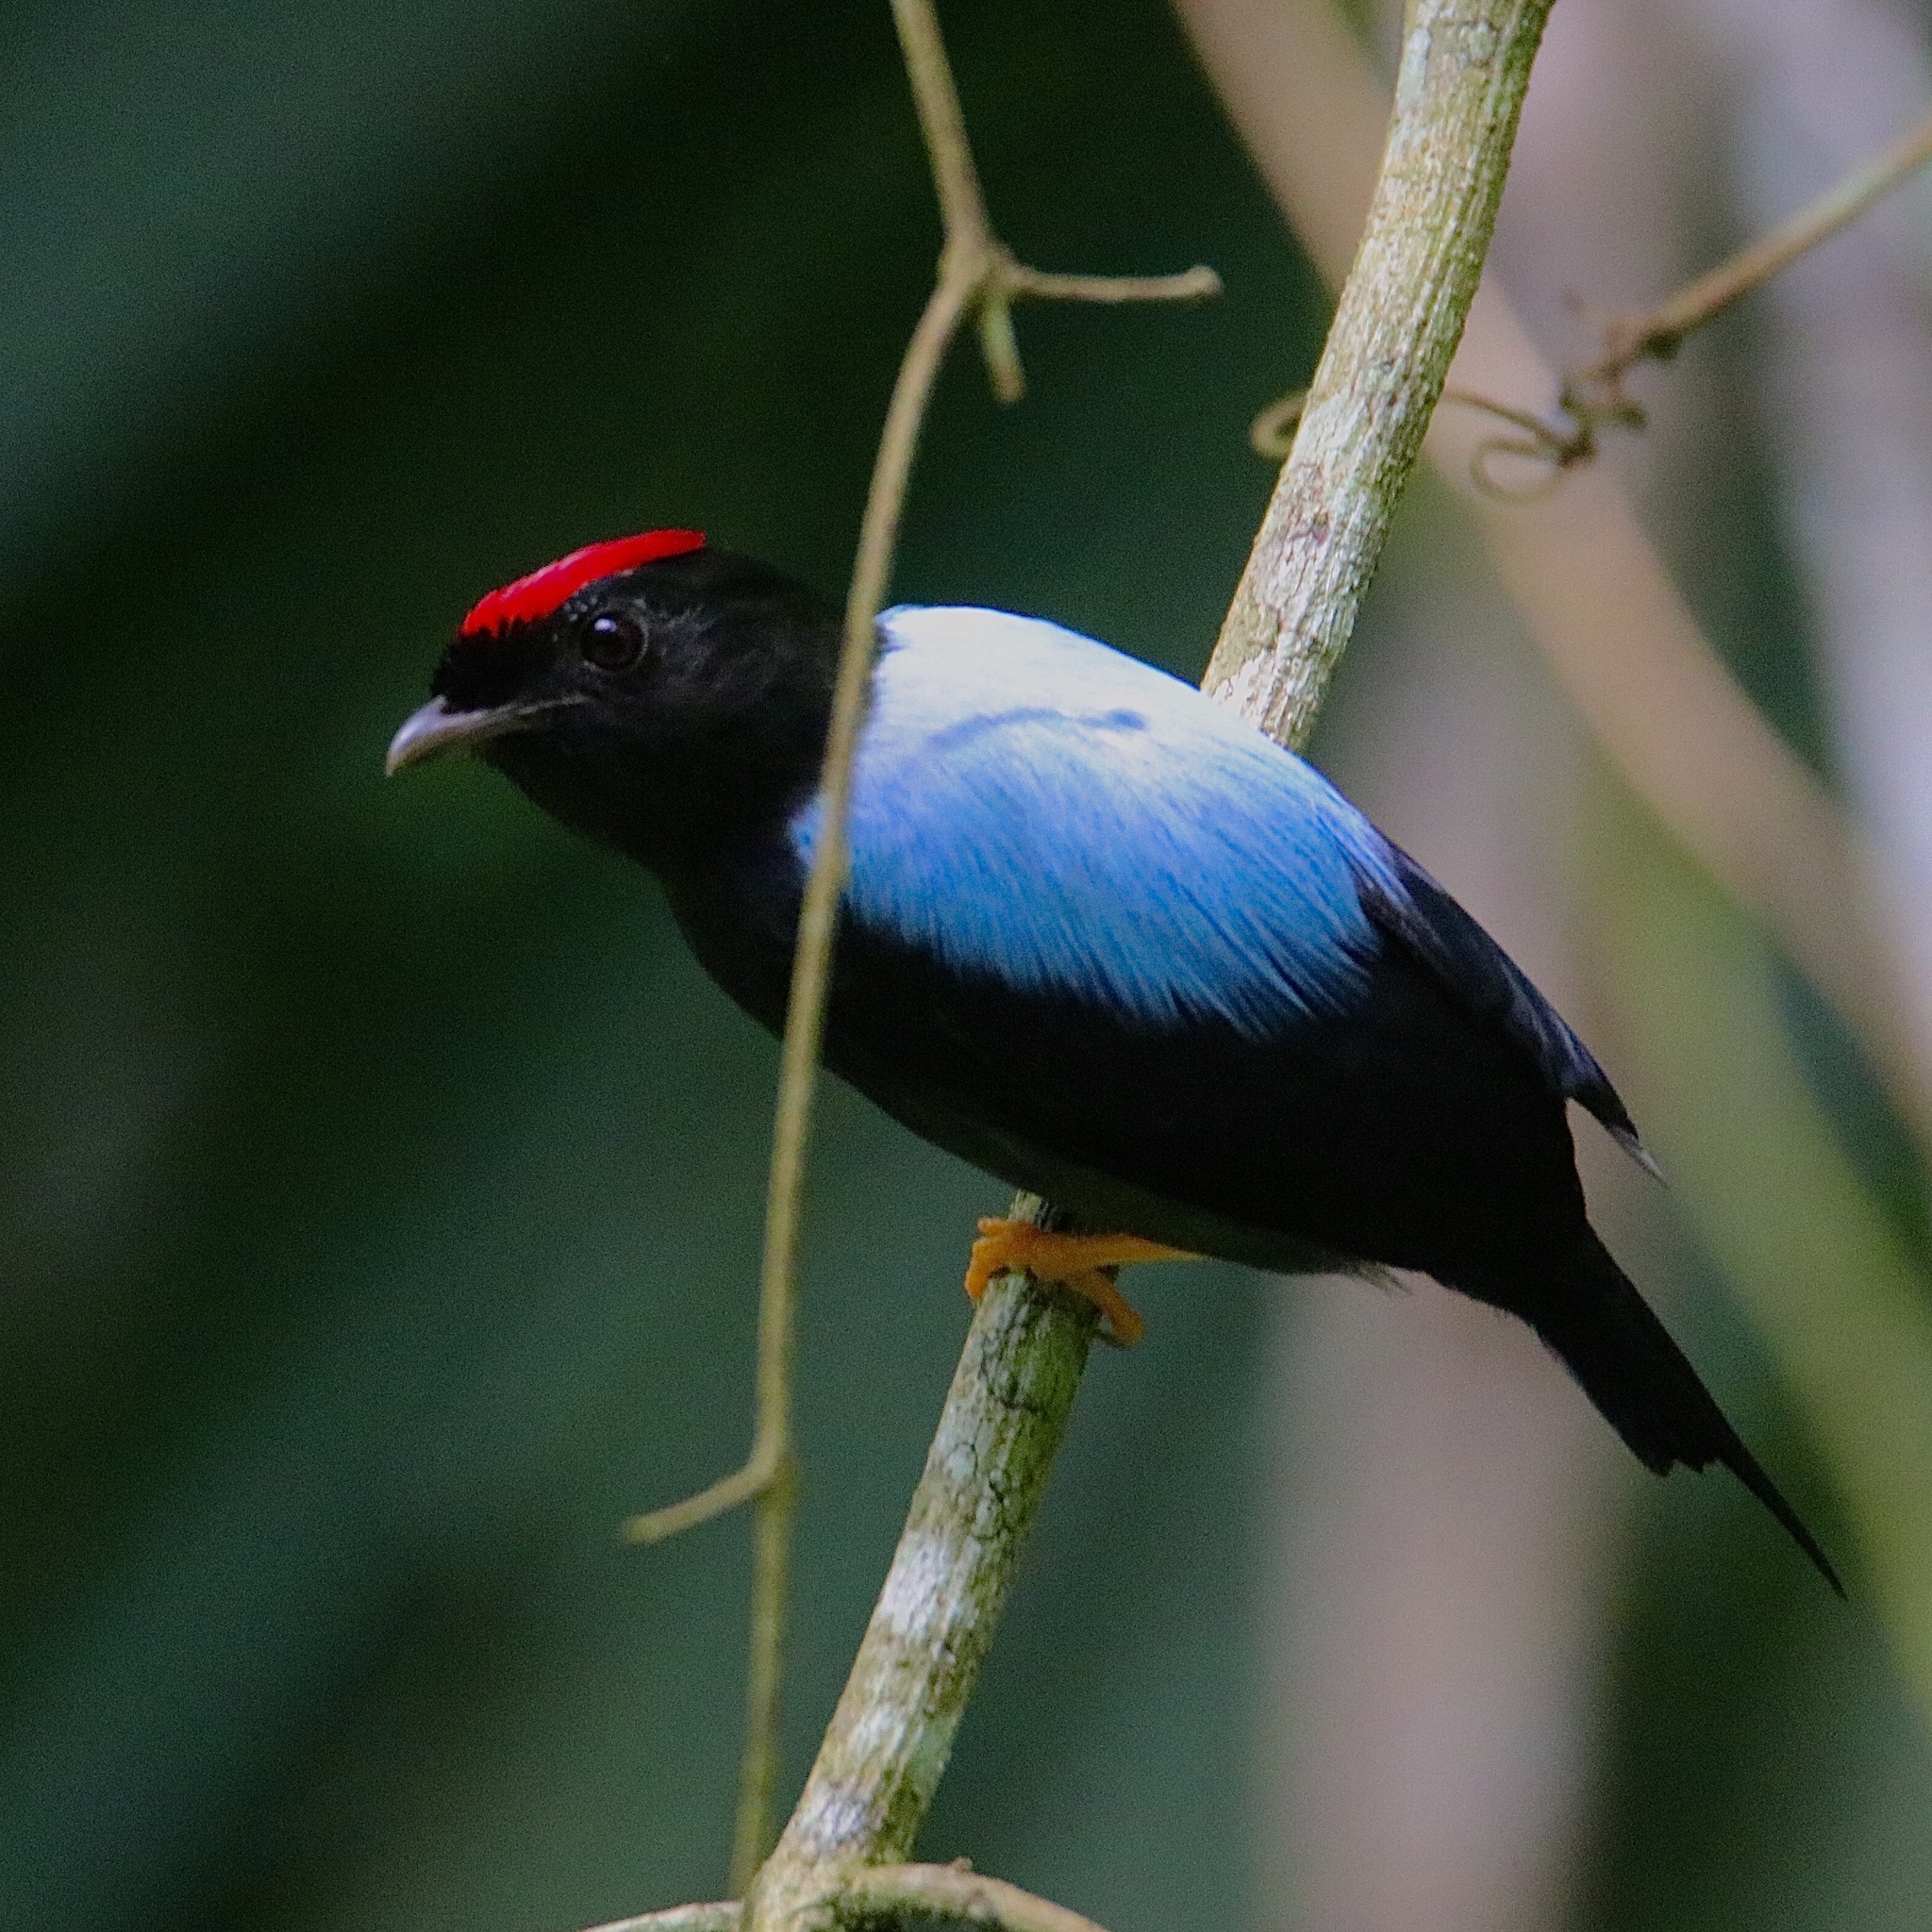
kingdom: Animalia
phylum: Chordata
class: Aves
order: Passeriformes
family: Pipridae
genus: Chiroxiphia
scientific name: Chiroxiphia lanceolata
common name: Lance-tailed manakin
